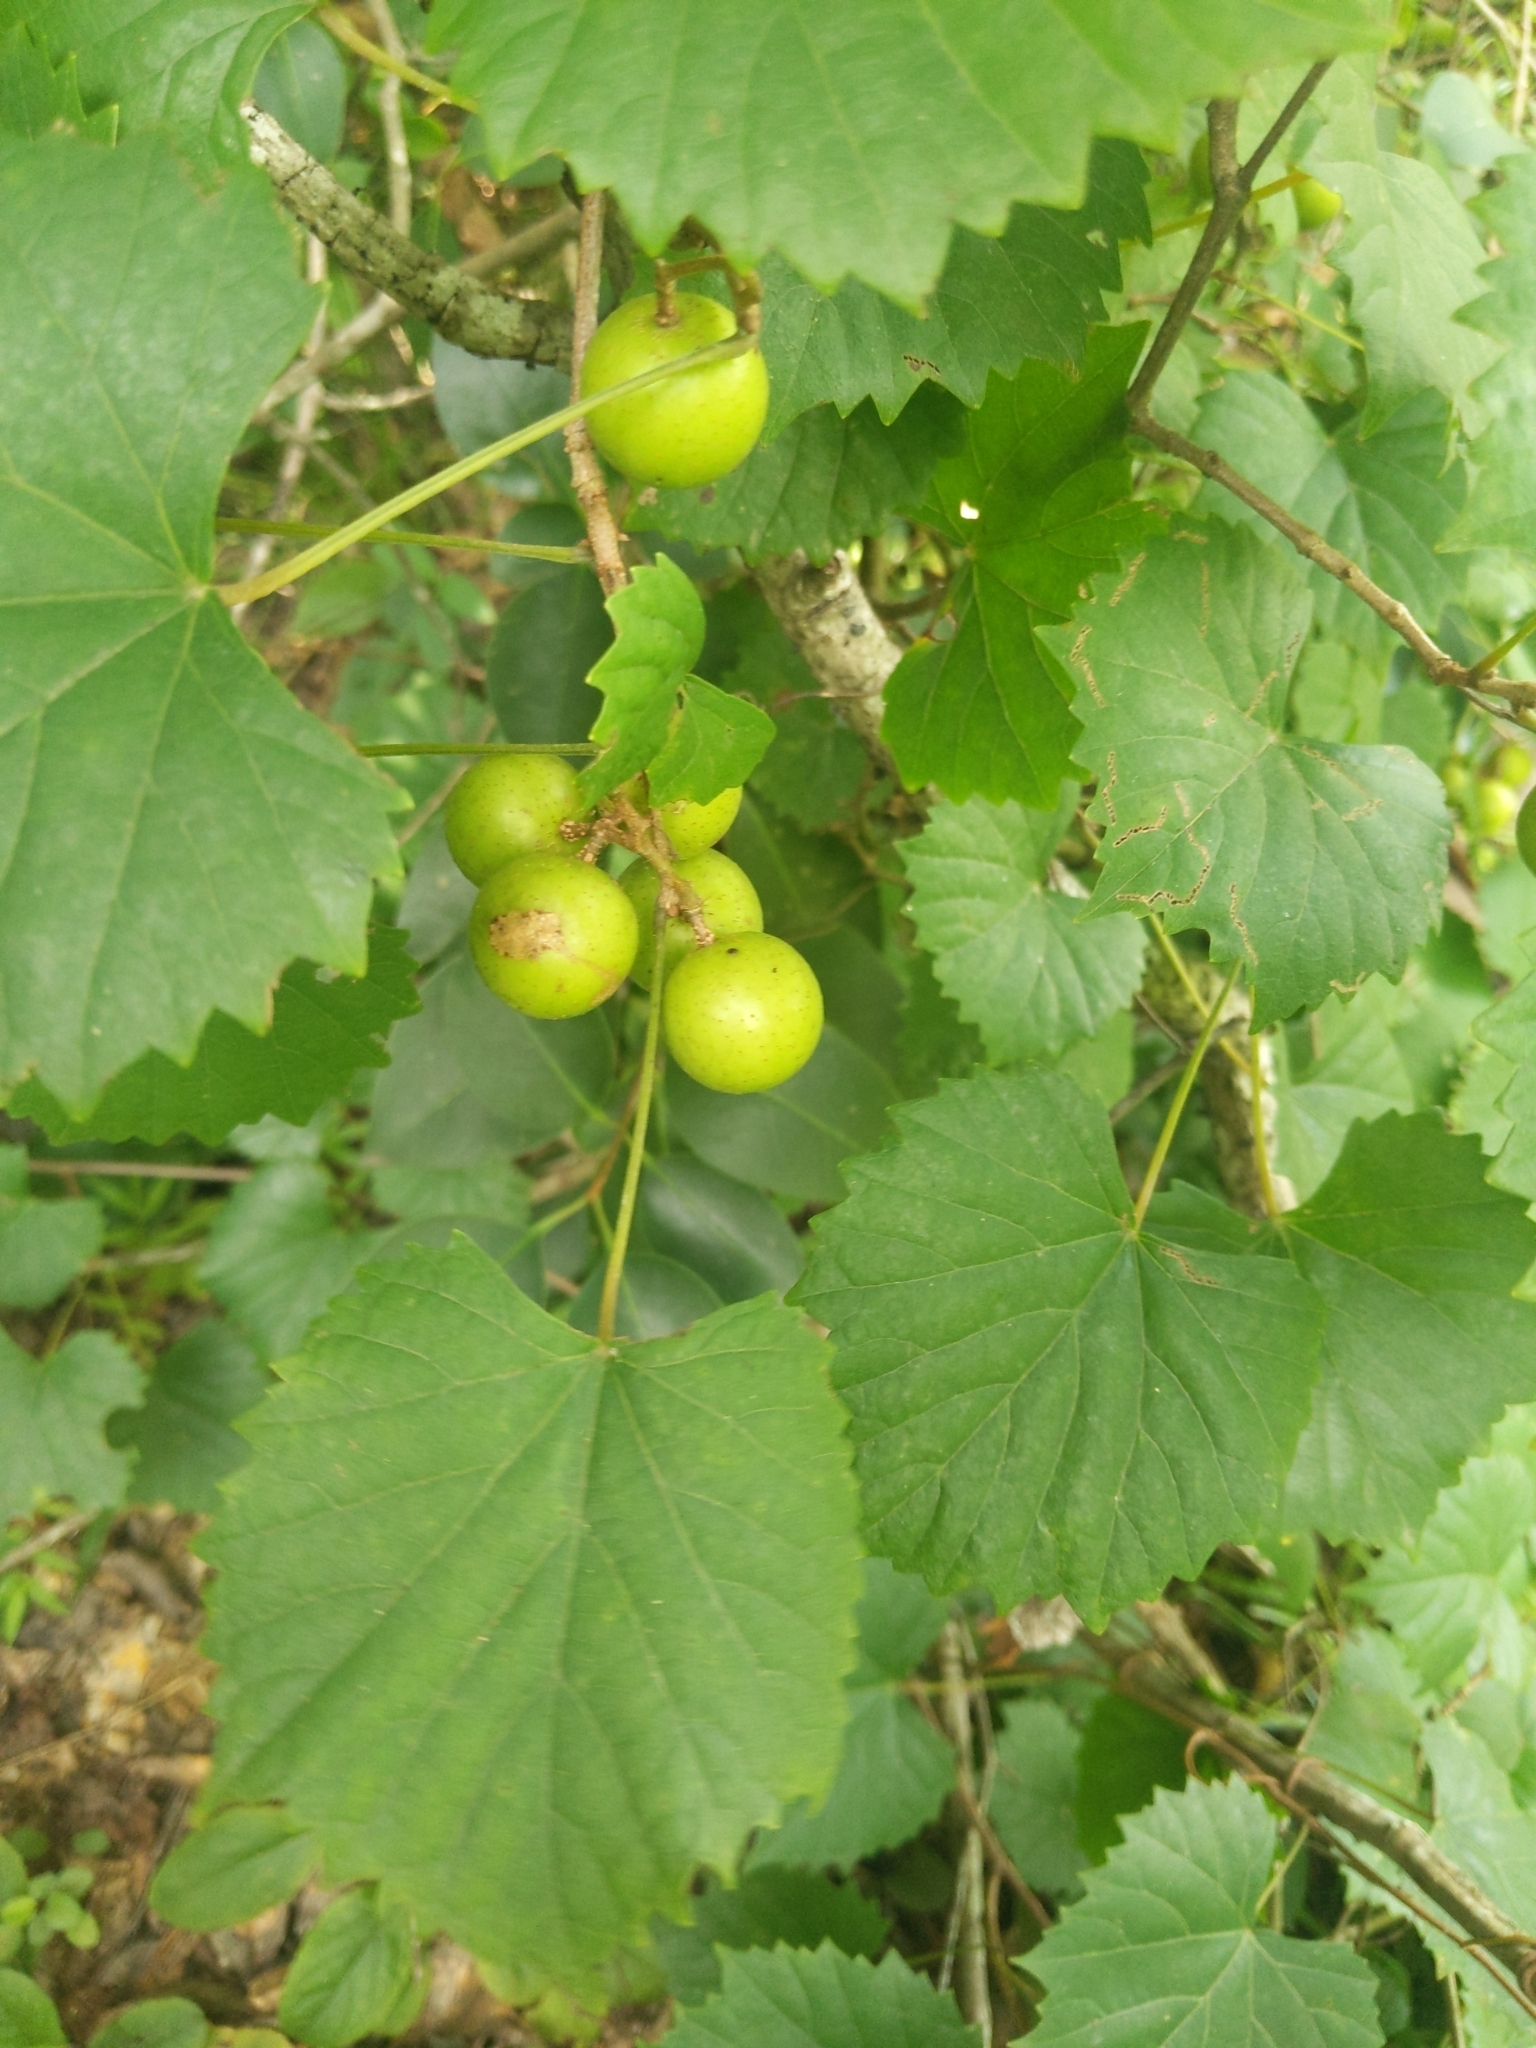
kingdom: Plantae
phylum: Tracheophyta
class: Magnoliopsida
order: Vitales
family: Vitaceae
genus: Vitis
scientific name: Vitis rotundifolia
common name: Muscadine grape
